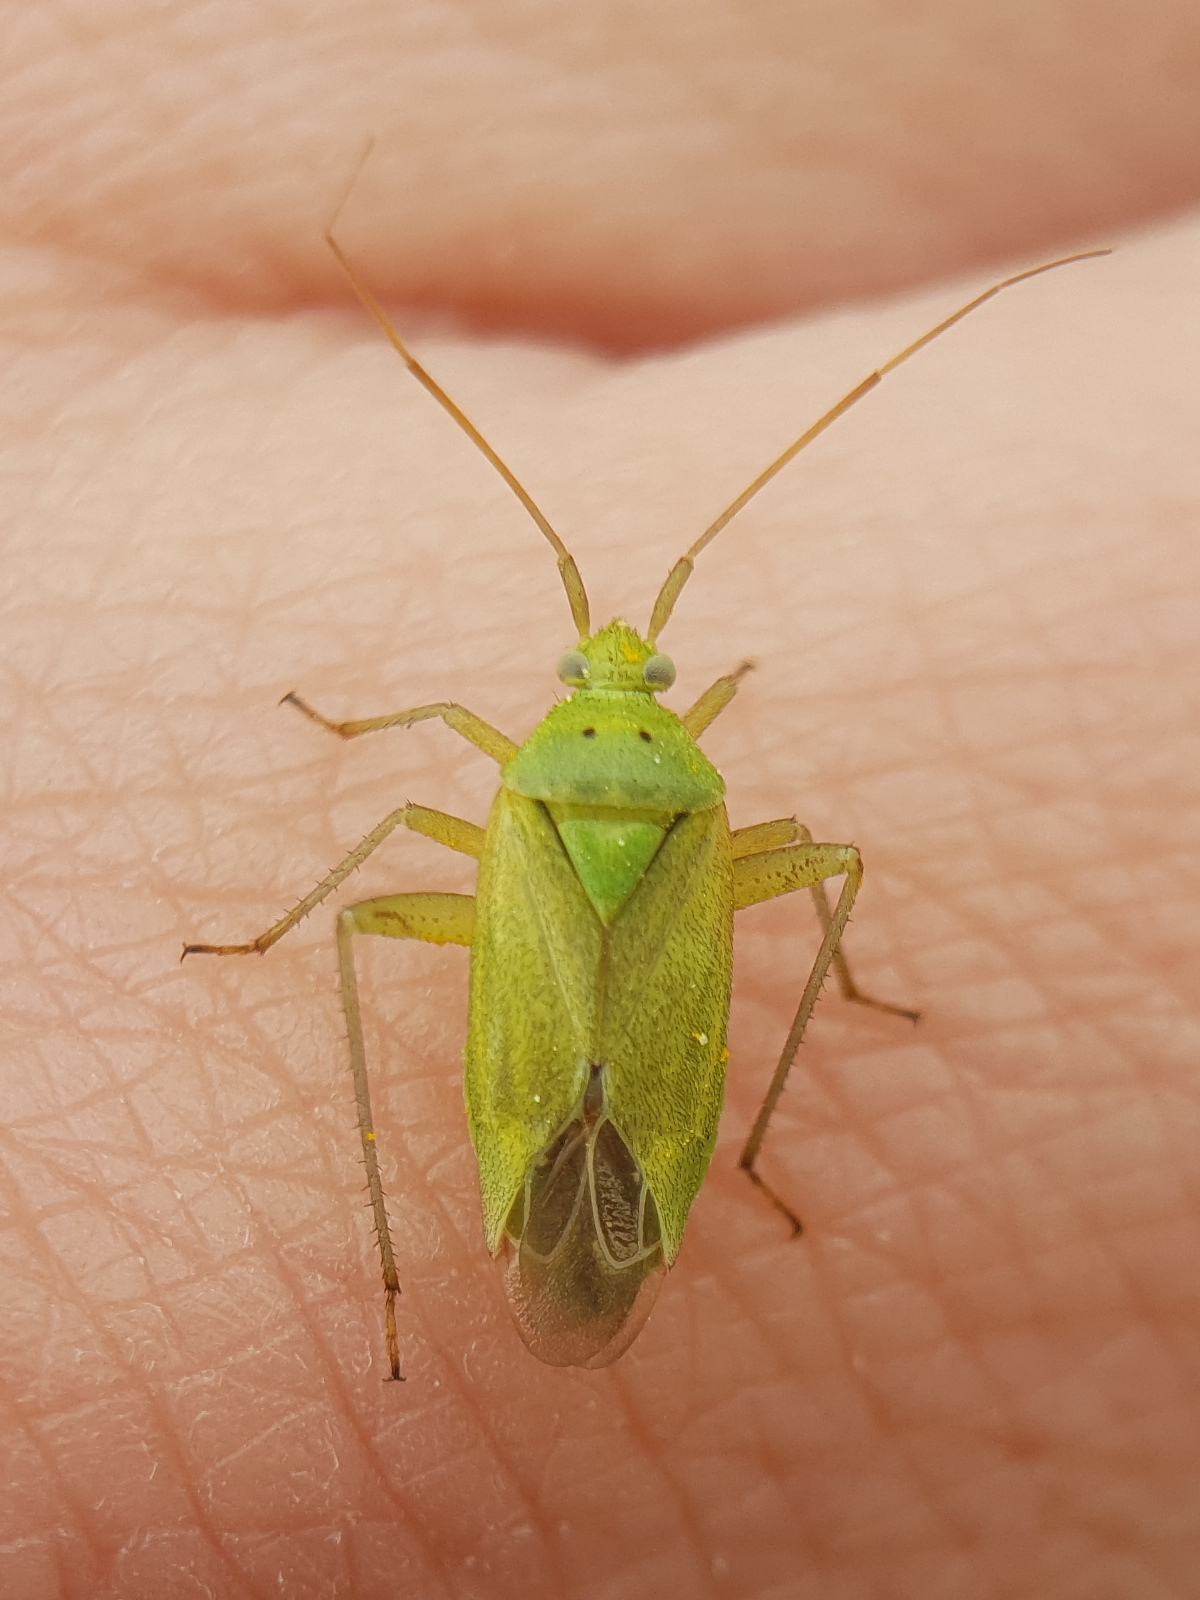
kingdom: Animalia
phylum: Arthropoda
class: Insecta
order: Hemiptera
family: Miridae
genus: Closterotomus
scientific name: Closterotomus norvegicus
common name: Plant bug
